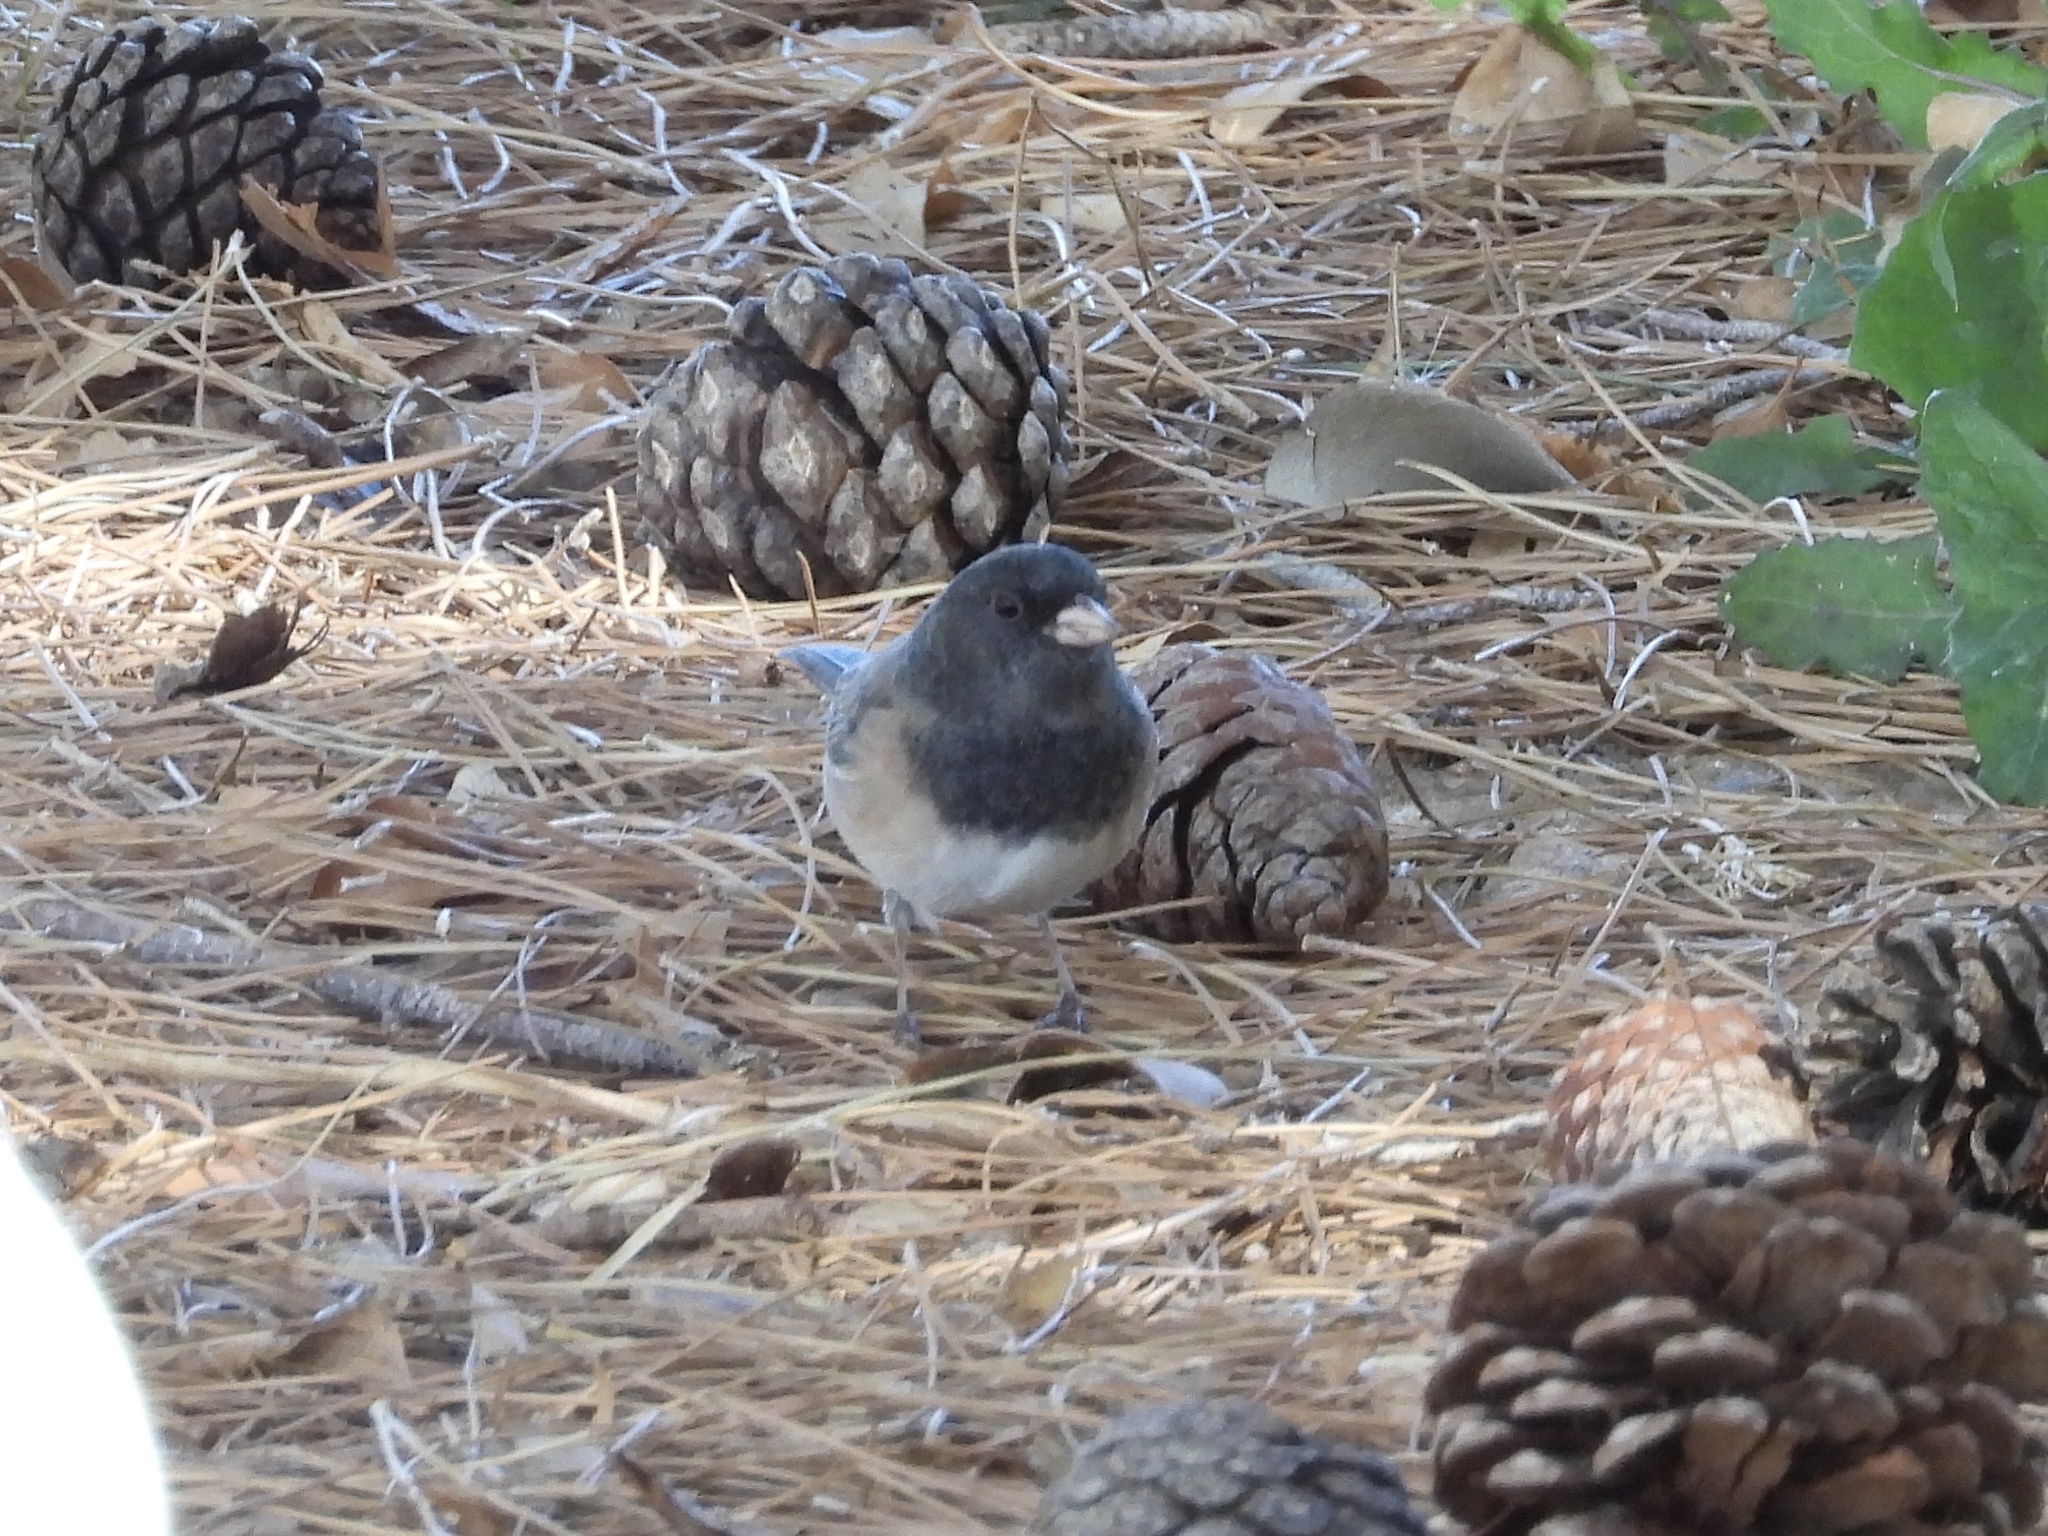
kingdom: Animalia
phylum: Chordata
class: Aves
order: Passeriformes
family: Passerellidae
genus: Junco
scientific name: Junco hyemalis
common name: Dark-eyed junco
